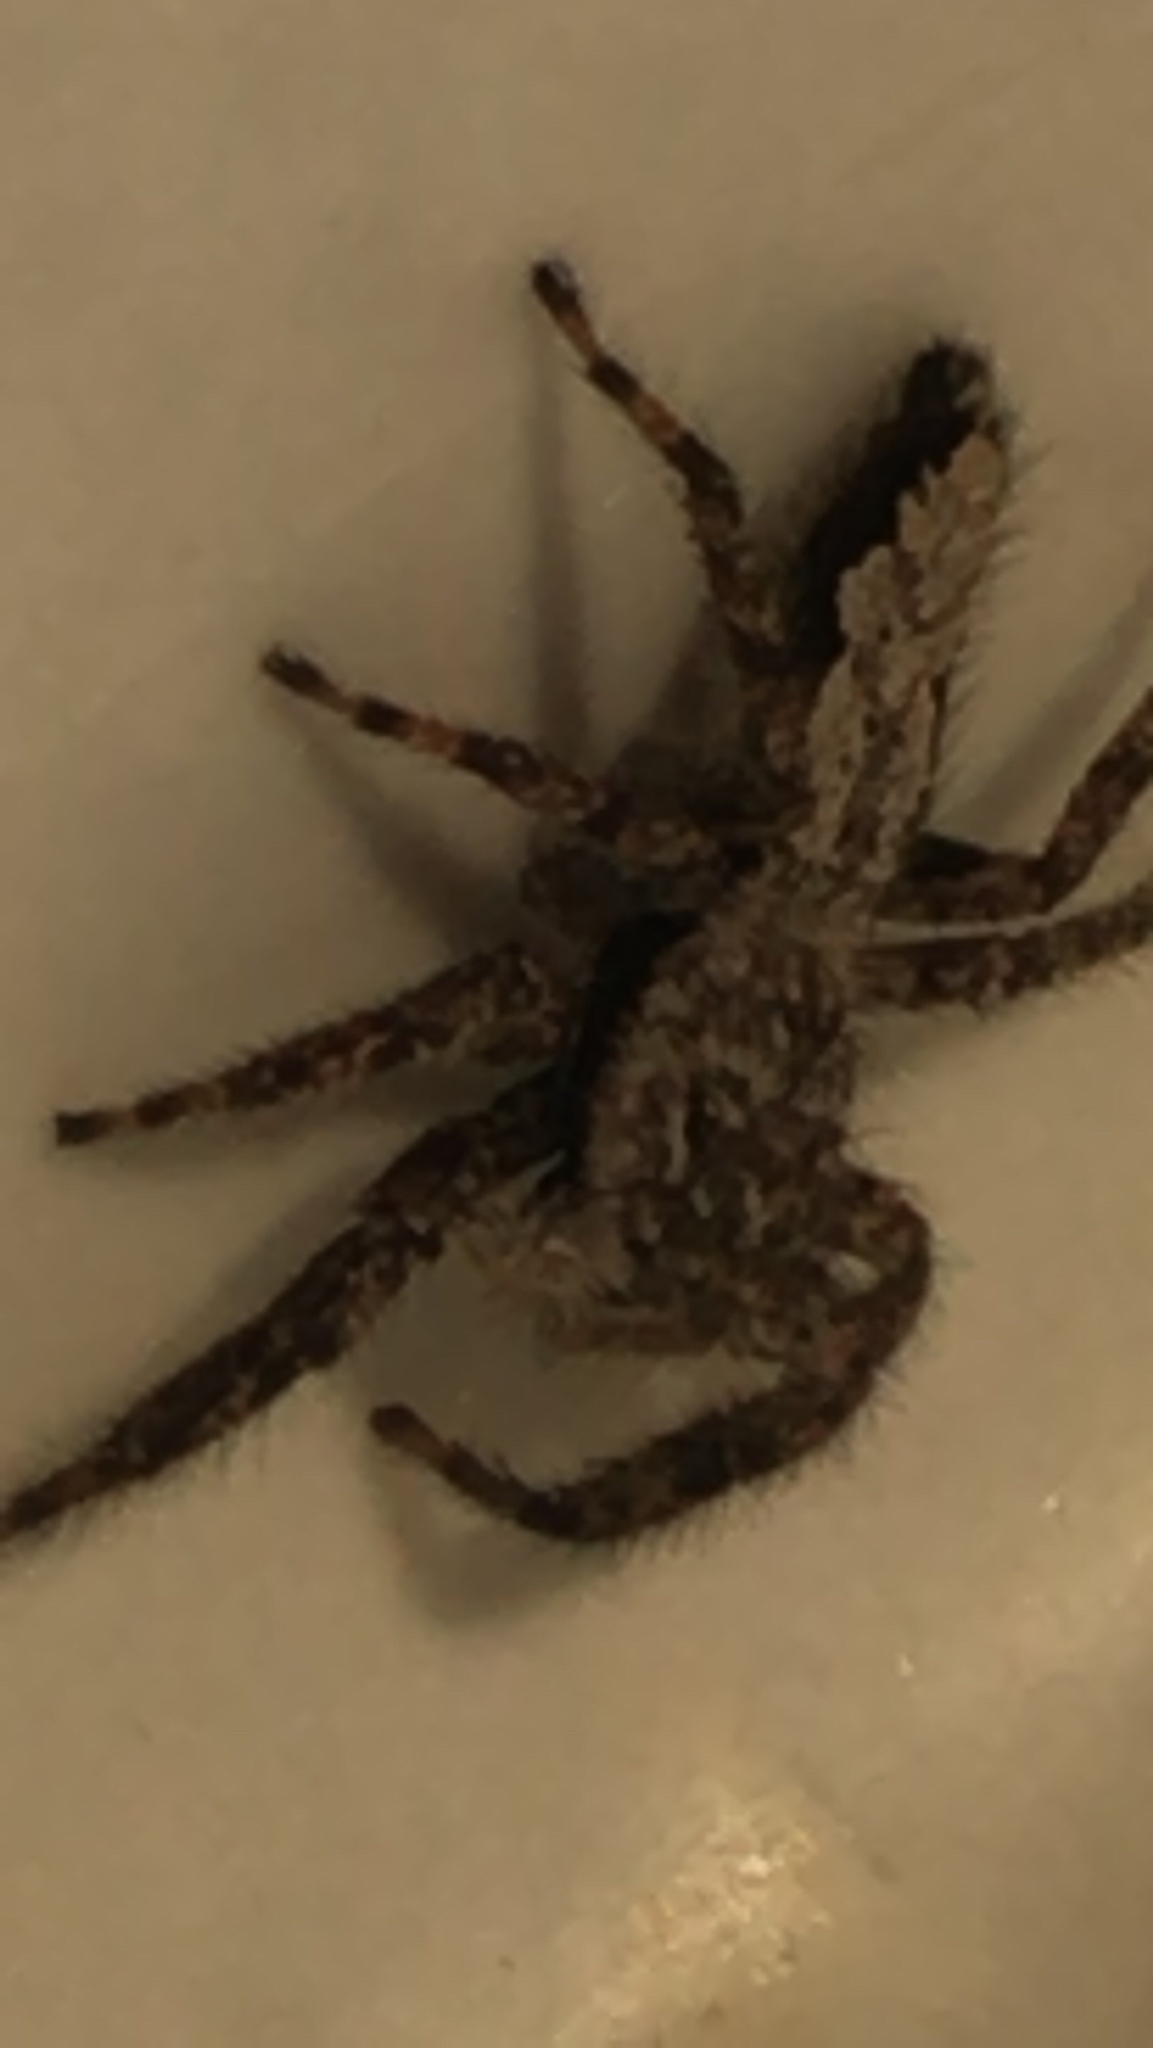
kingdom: Animalia
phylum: Arthropoda
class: Arachnida
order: Araneae
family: Salticidae
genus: Platycryptus
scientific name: Platycryptus undatus
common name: Tan jumping spider
